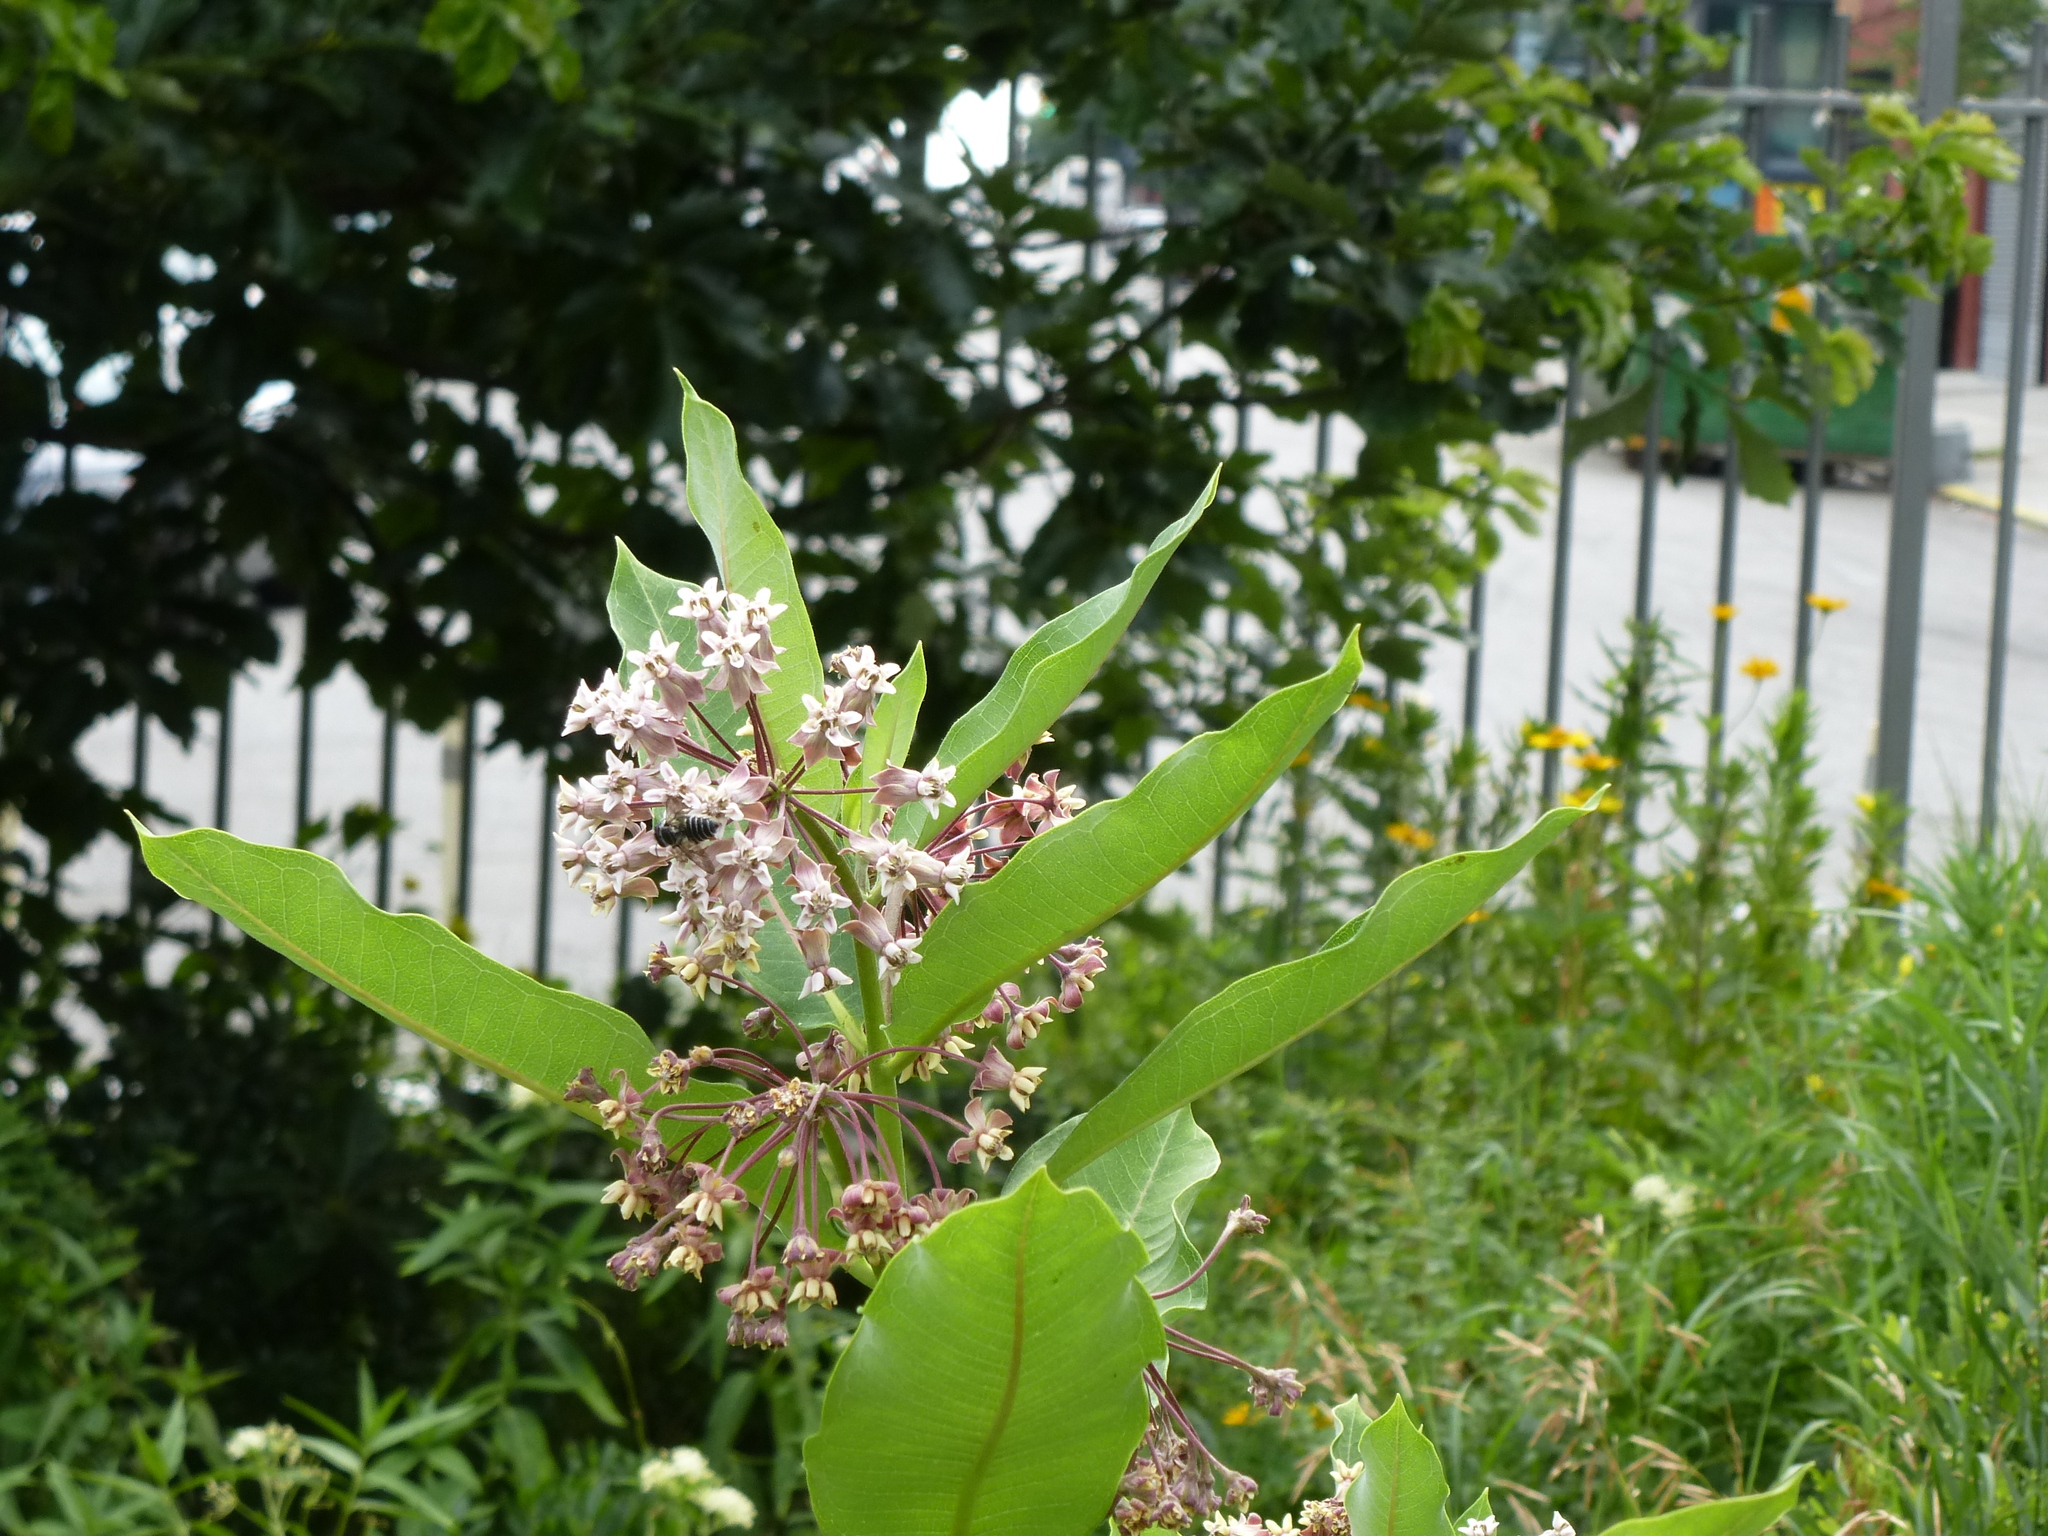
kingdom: Animalia
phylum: Arthropoda
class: Insecta
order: Hymenoptera
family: Megachilidae
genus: Megachile
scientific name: Megachile
